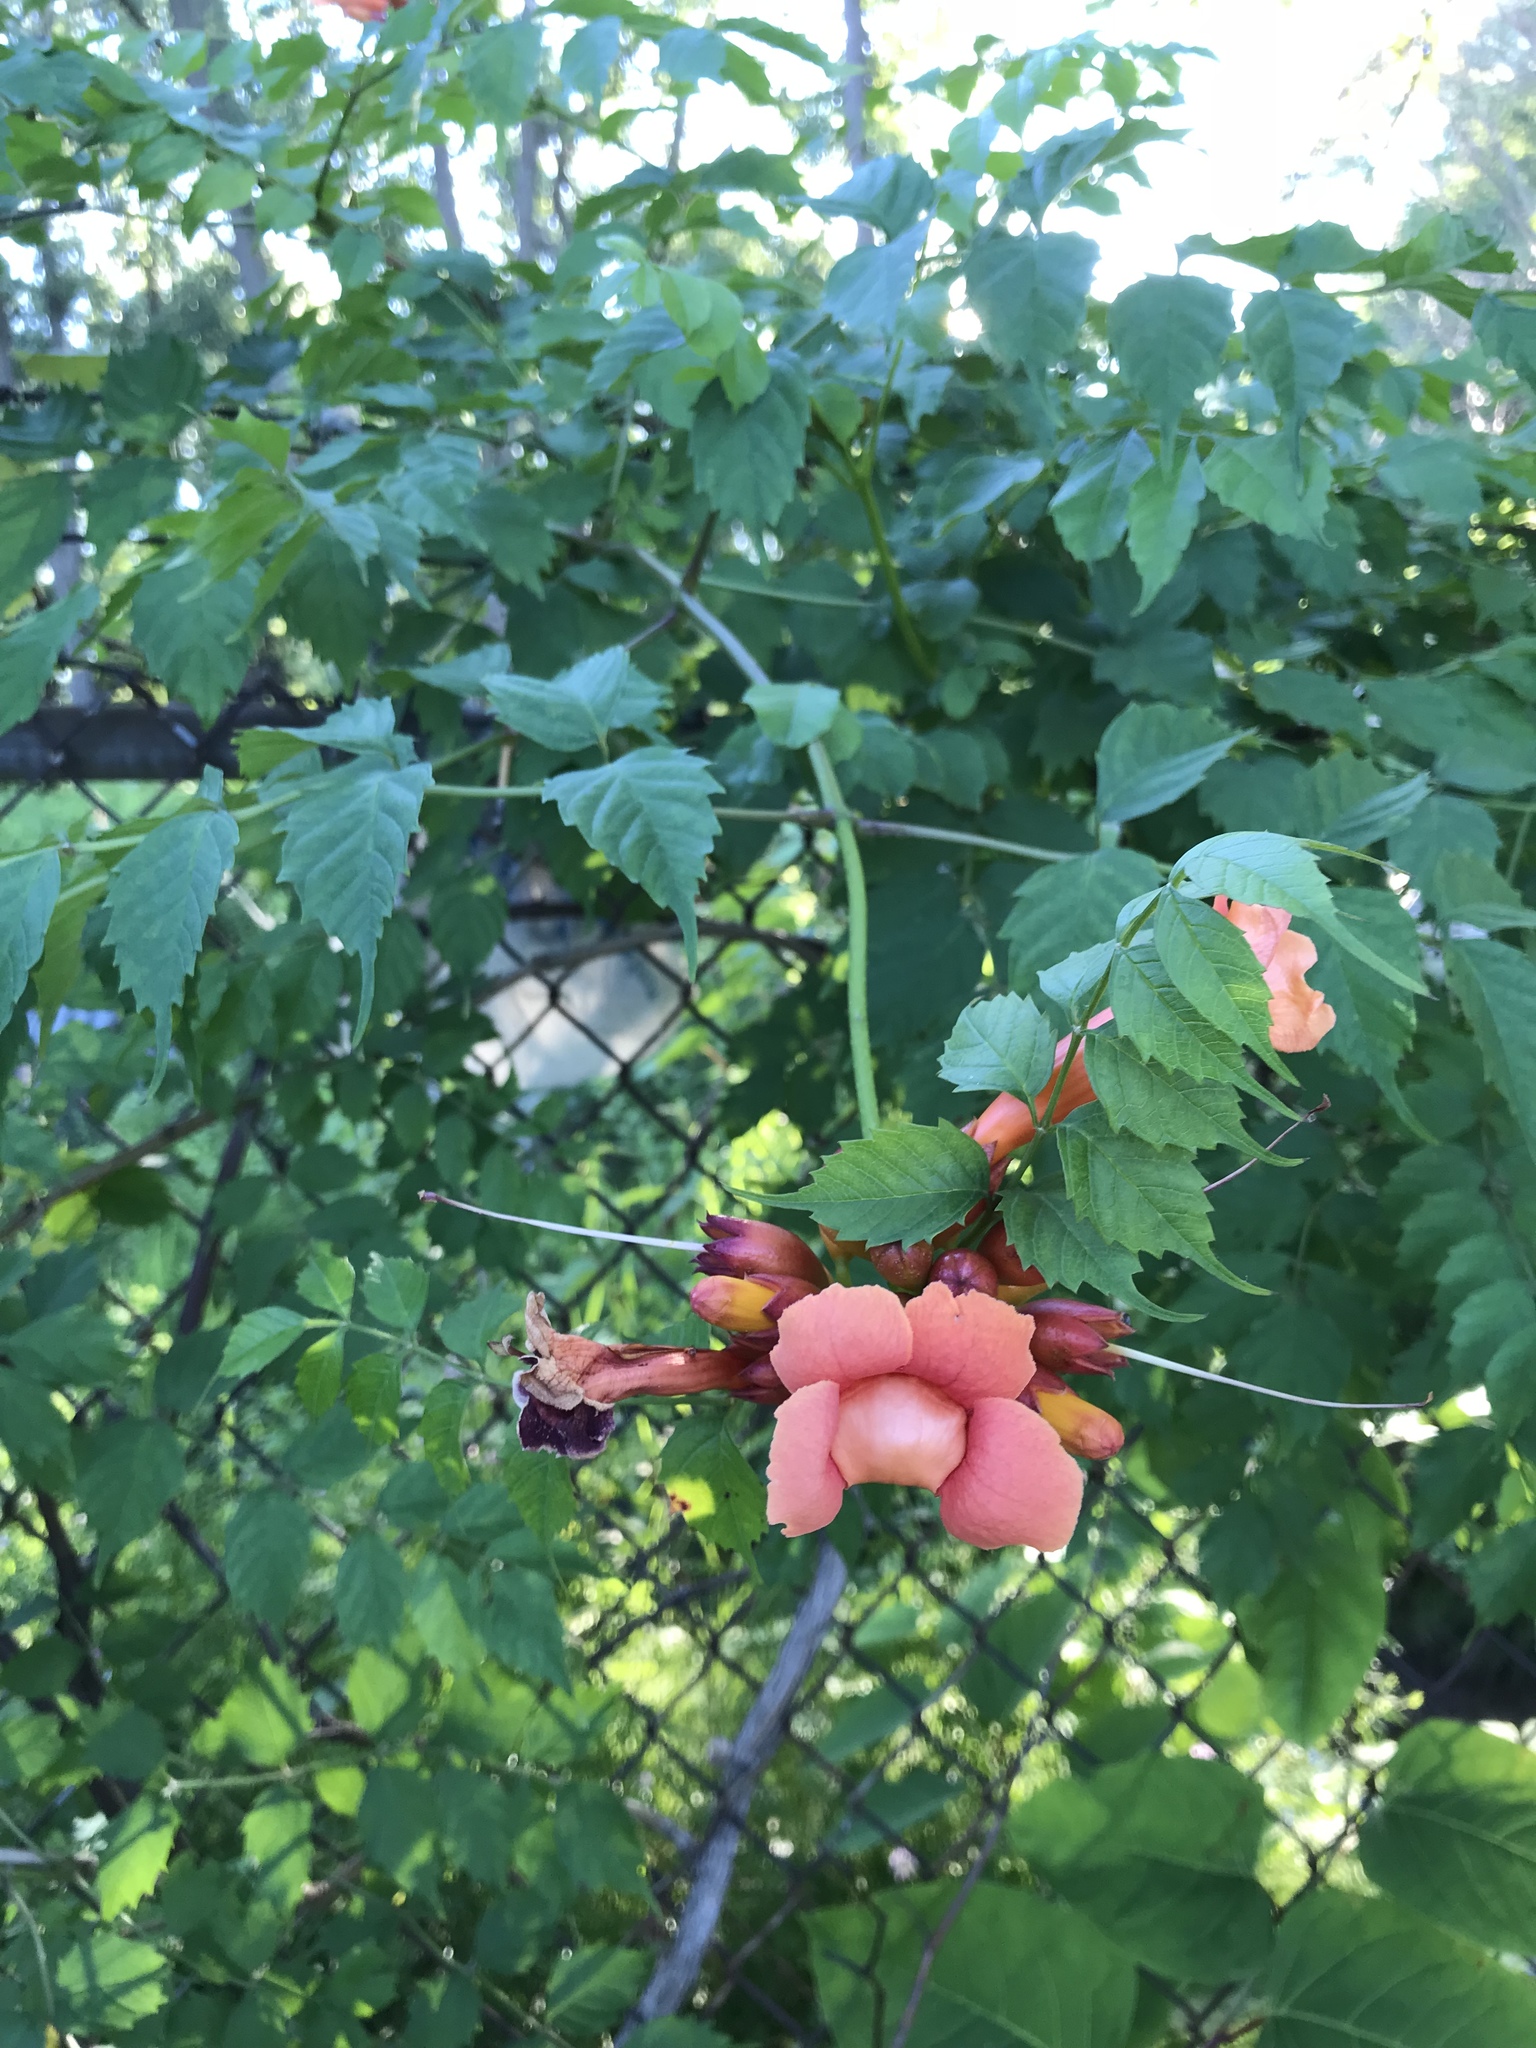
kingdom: Plantae
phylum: Tracheophyta
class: Magnoliopsida
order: Lamiales
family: Bignoniaceae
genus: Campsis
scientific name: Campsis radicans
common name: Trumpet-creeper
